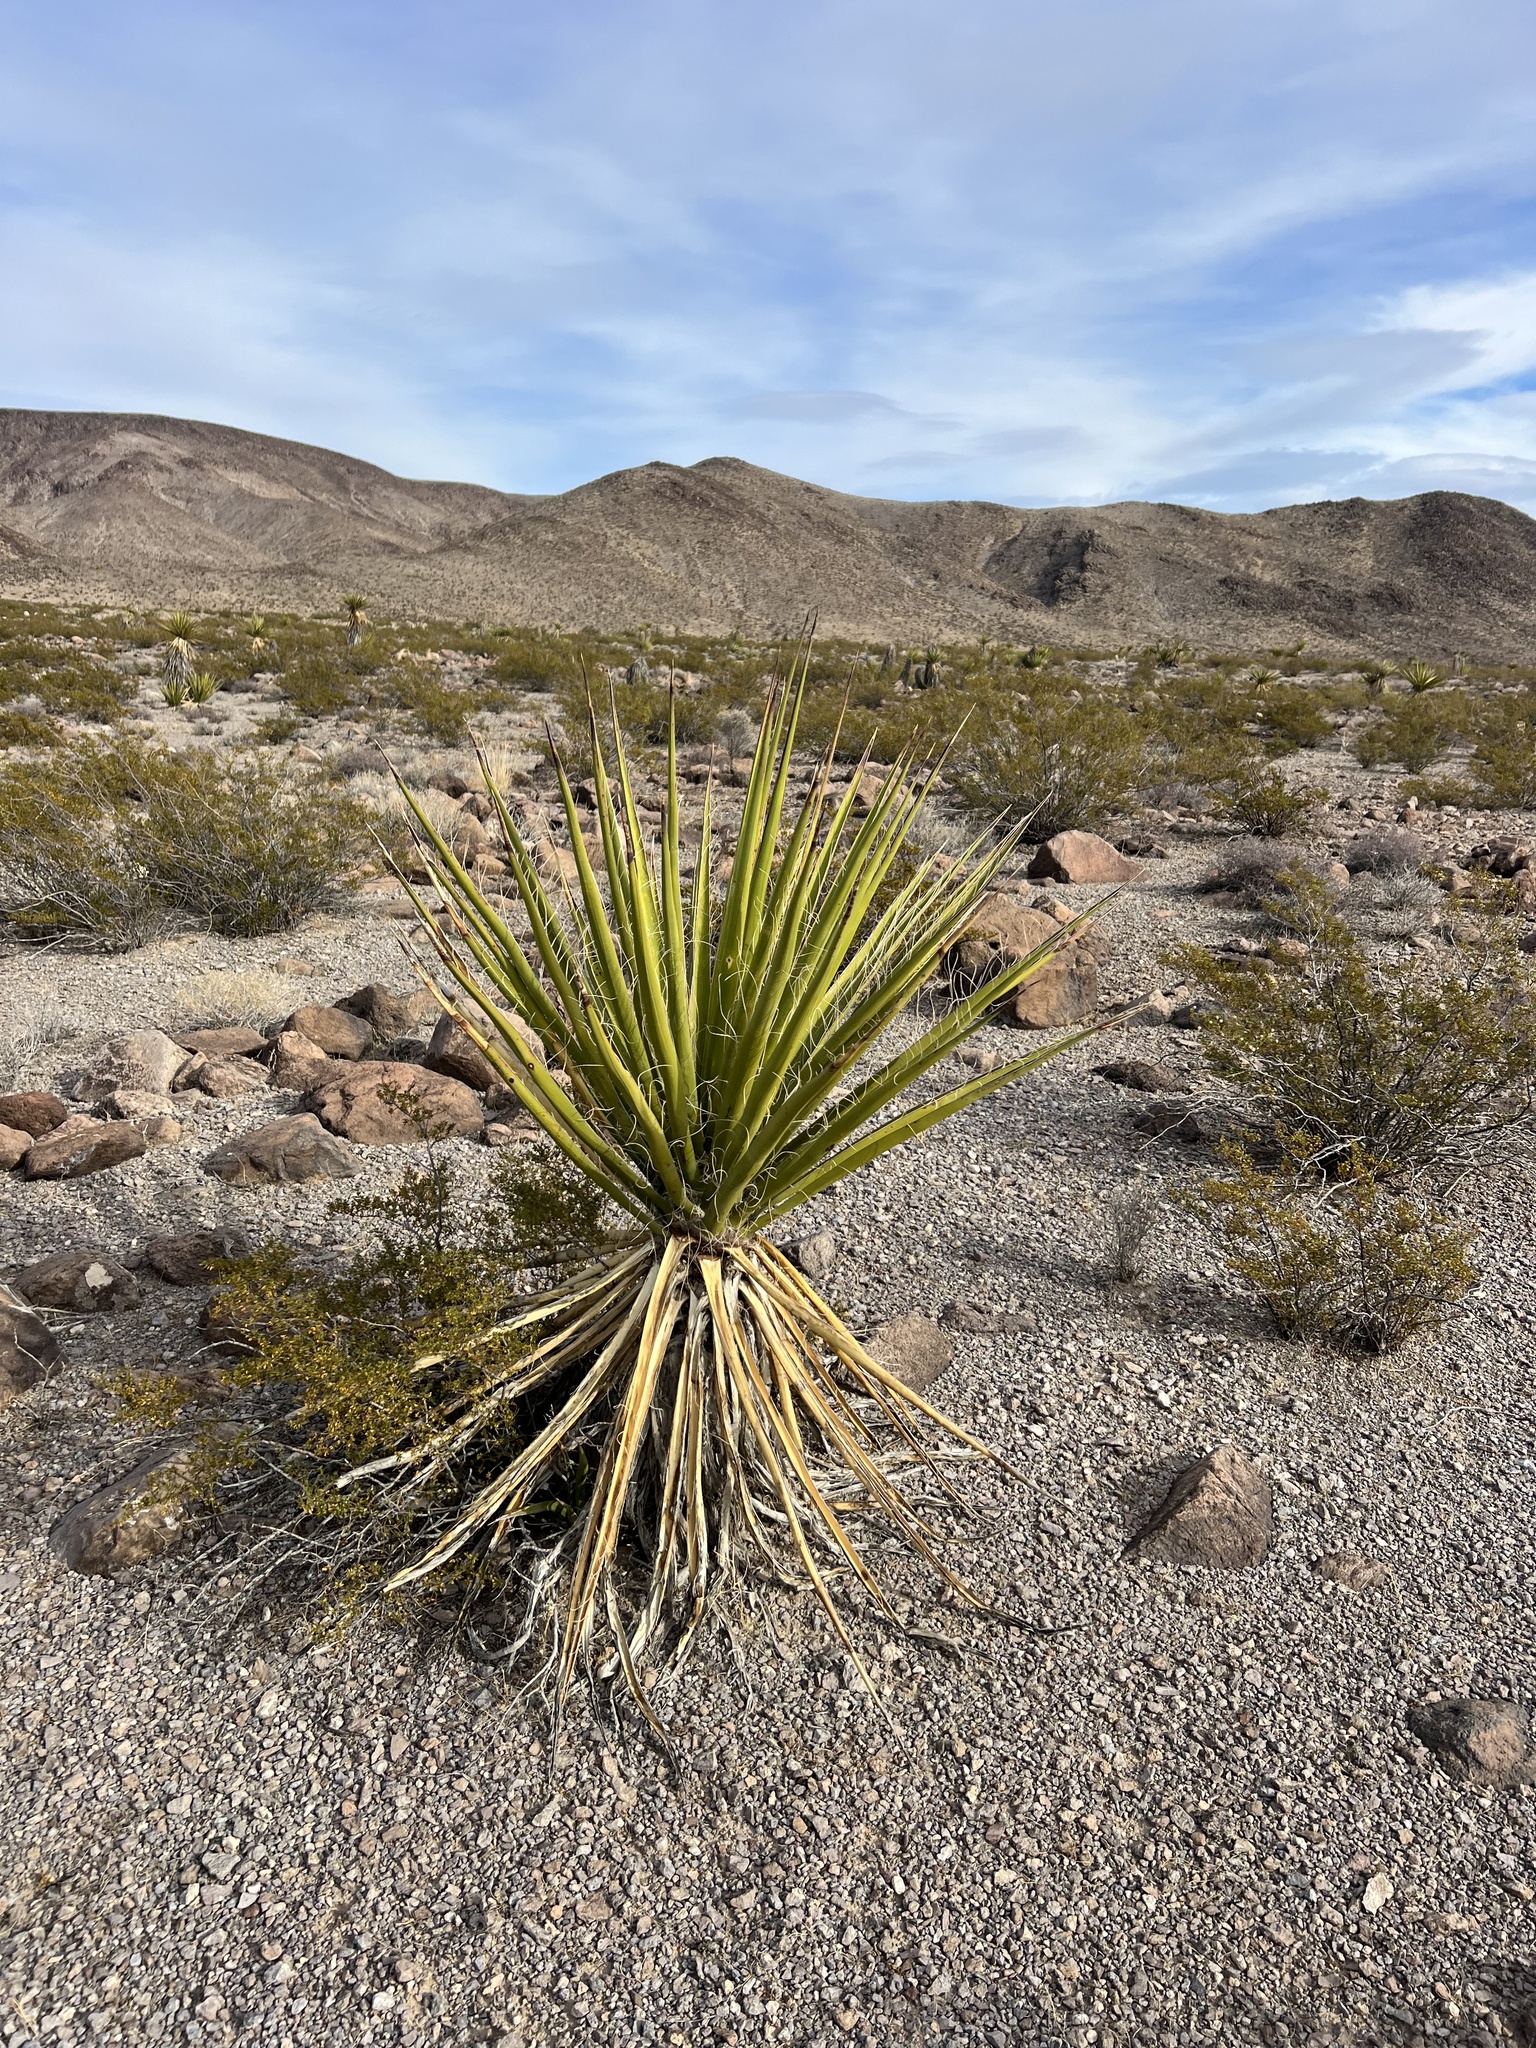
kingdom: Plantae
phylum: Tracheophyta
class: Liliopsida
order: Asparagales
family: Asparagaceae
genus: Yucca
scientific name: Yucca schidigera
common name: Mojave yucca
